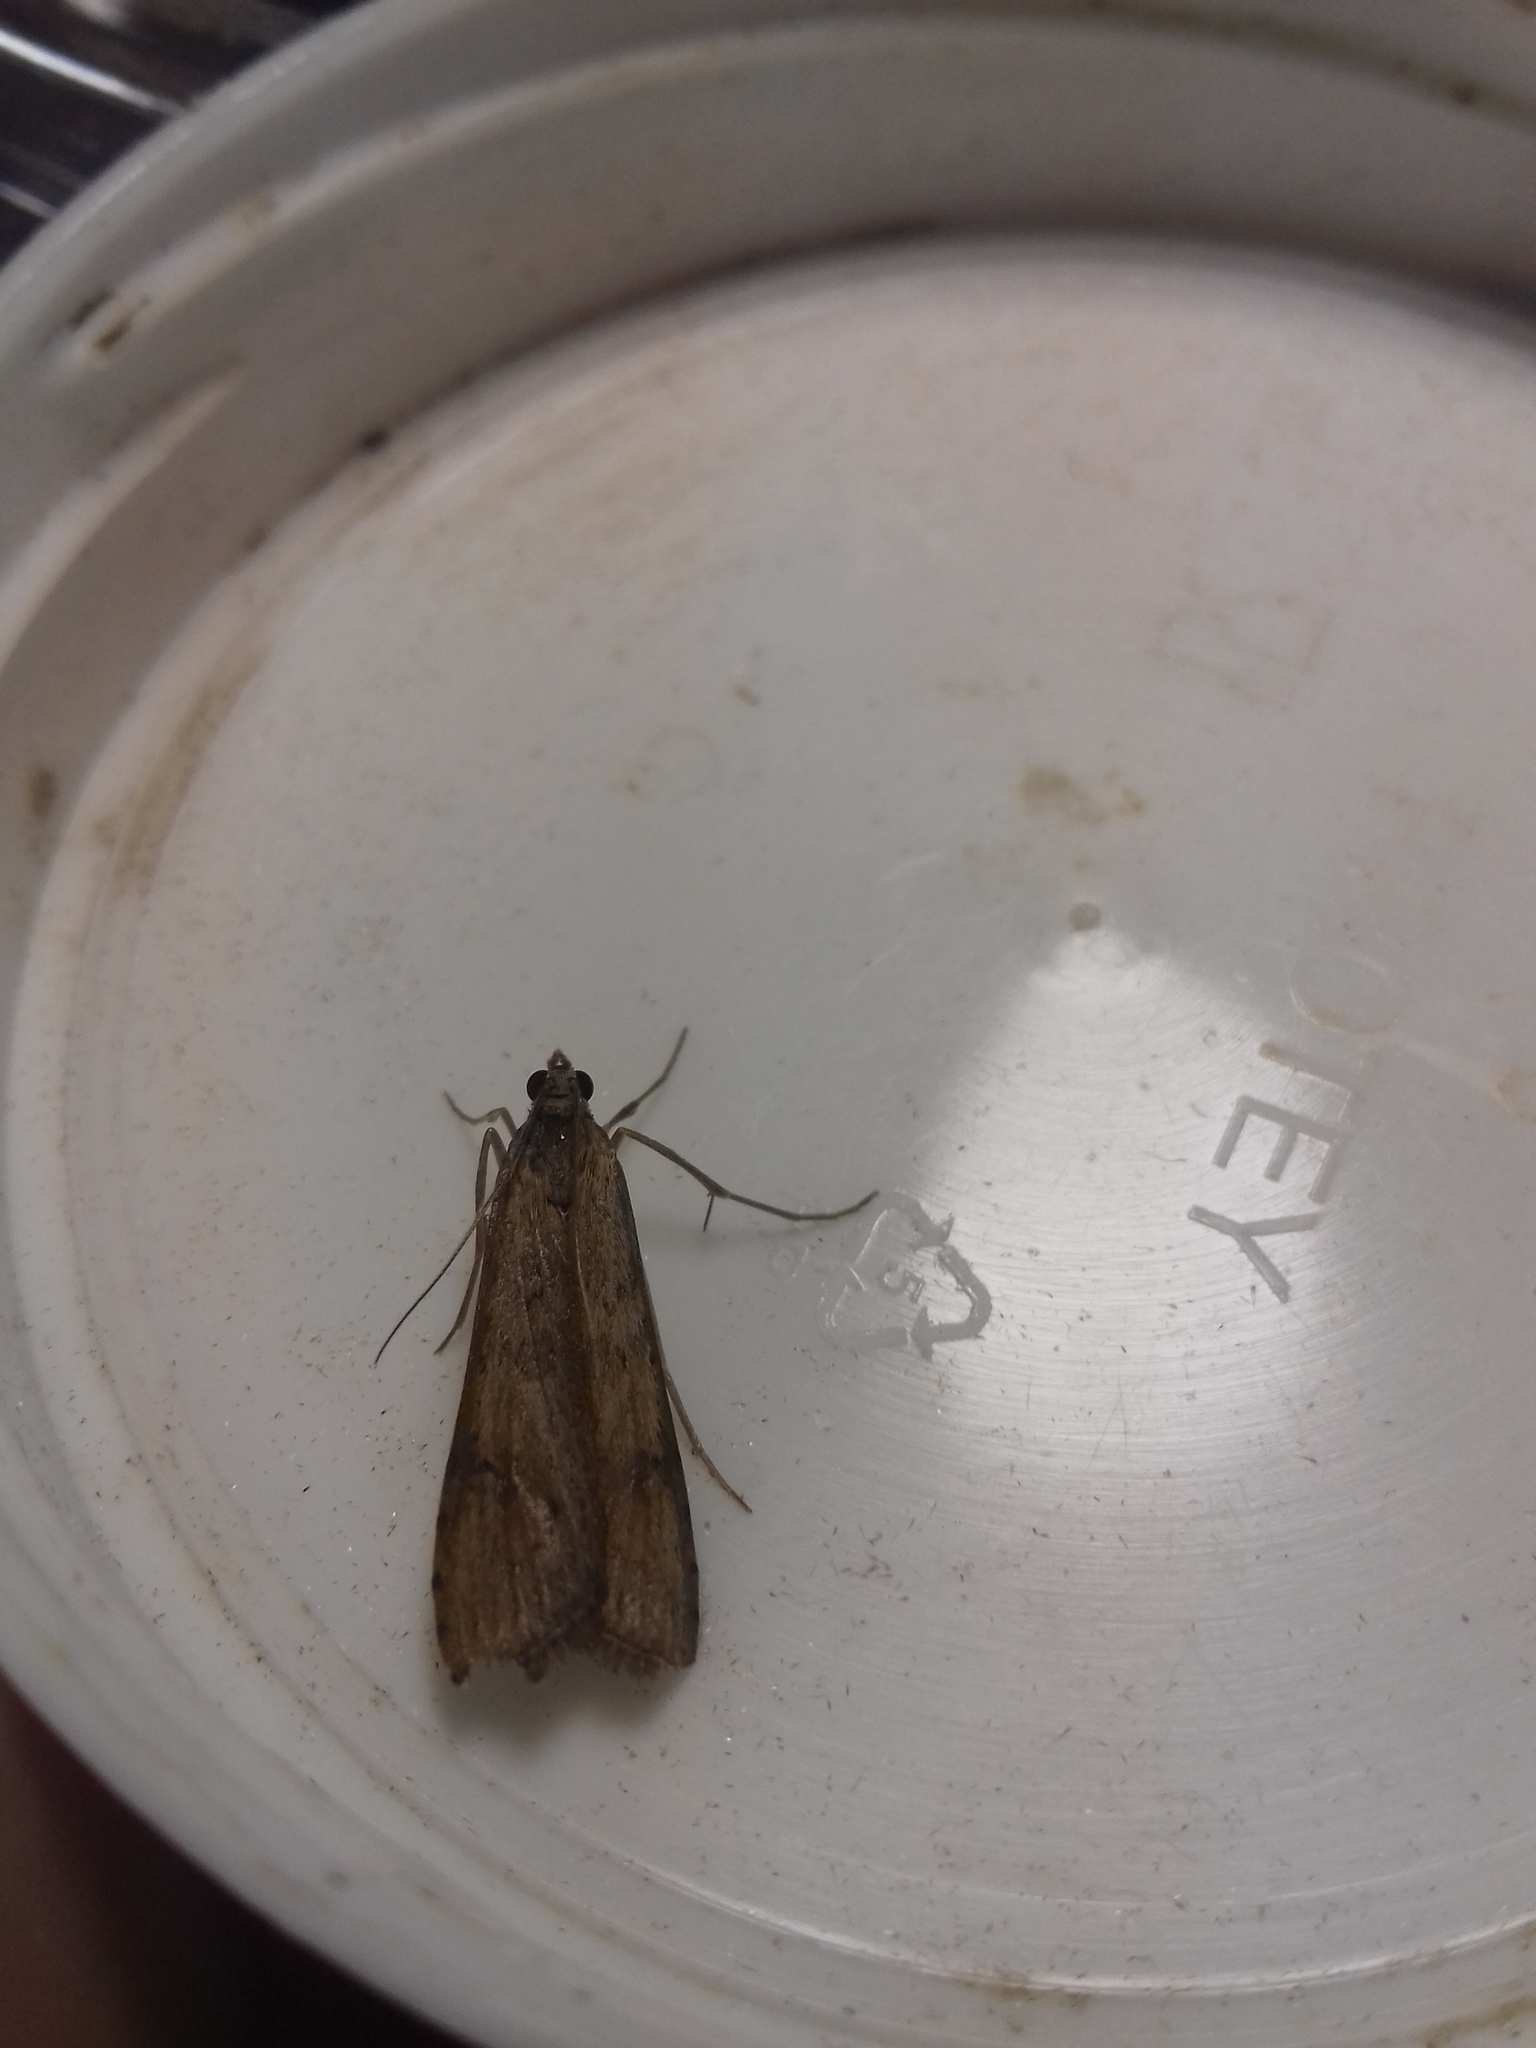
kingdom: Animalia
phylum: Arthropoda
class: Insecta
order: Lepidoptera
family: Crambidae
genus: Nomophila
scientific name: Nomophila noctuella
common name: Rush veneer
